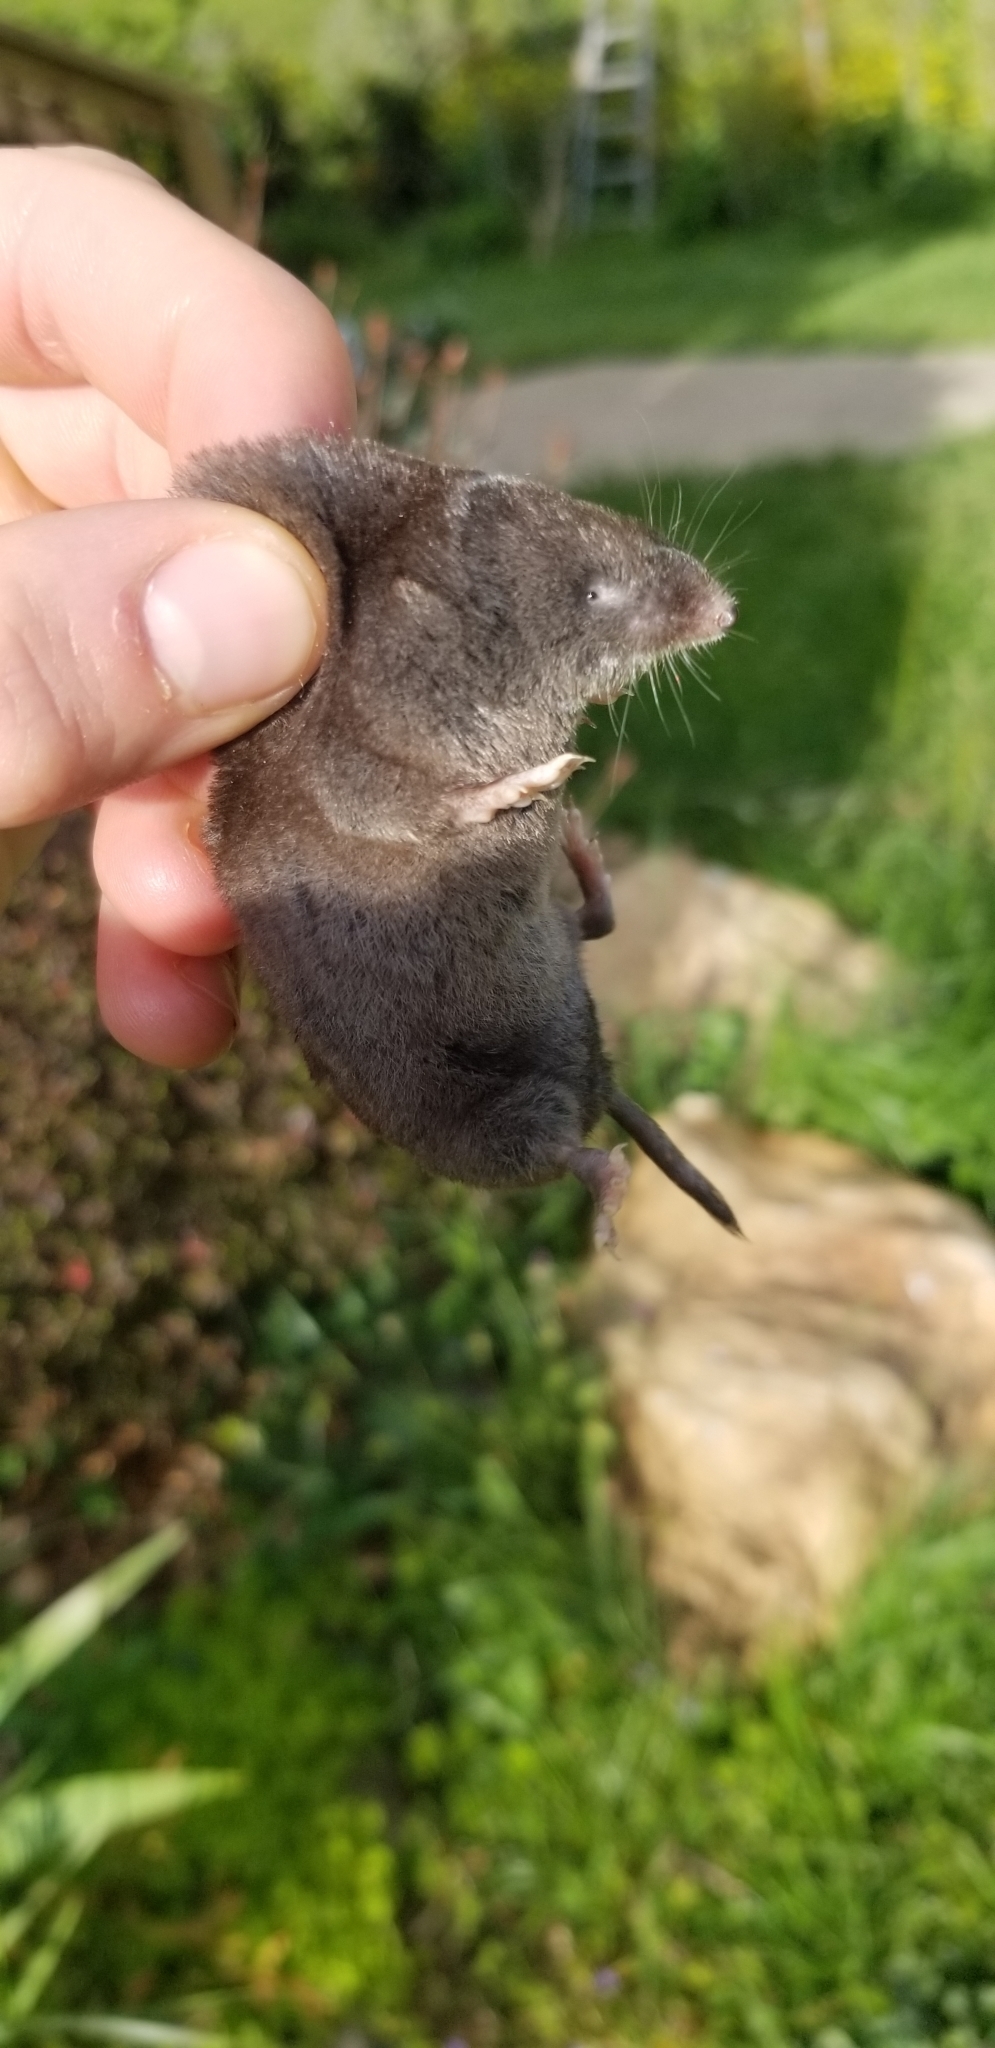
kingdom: Animalia
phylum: Chordata
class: Mammalia
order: Soricomorpha
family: Soricidae
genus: Blarina
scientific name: Blarina brevicauda
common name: Northern short-tailed shrew
